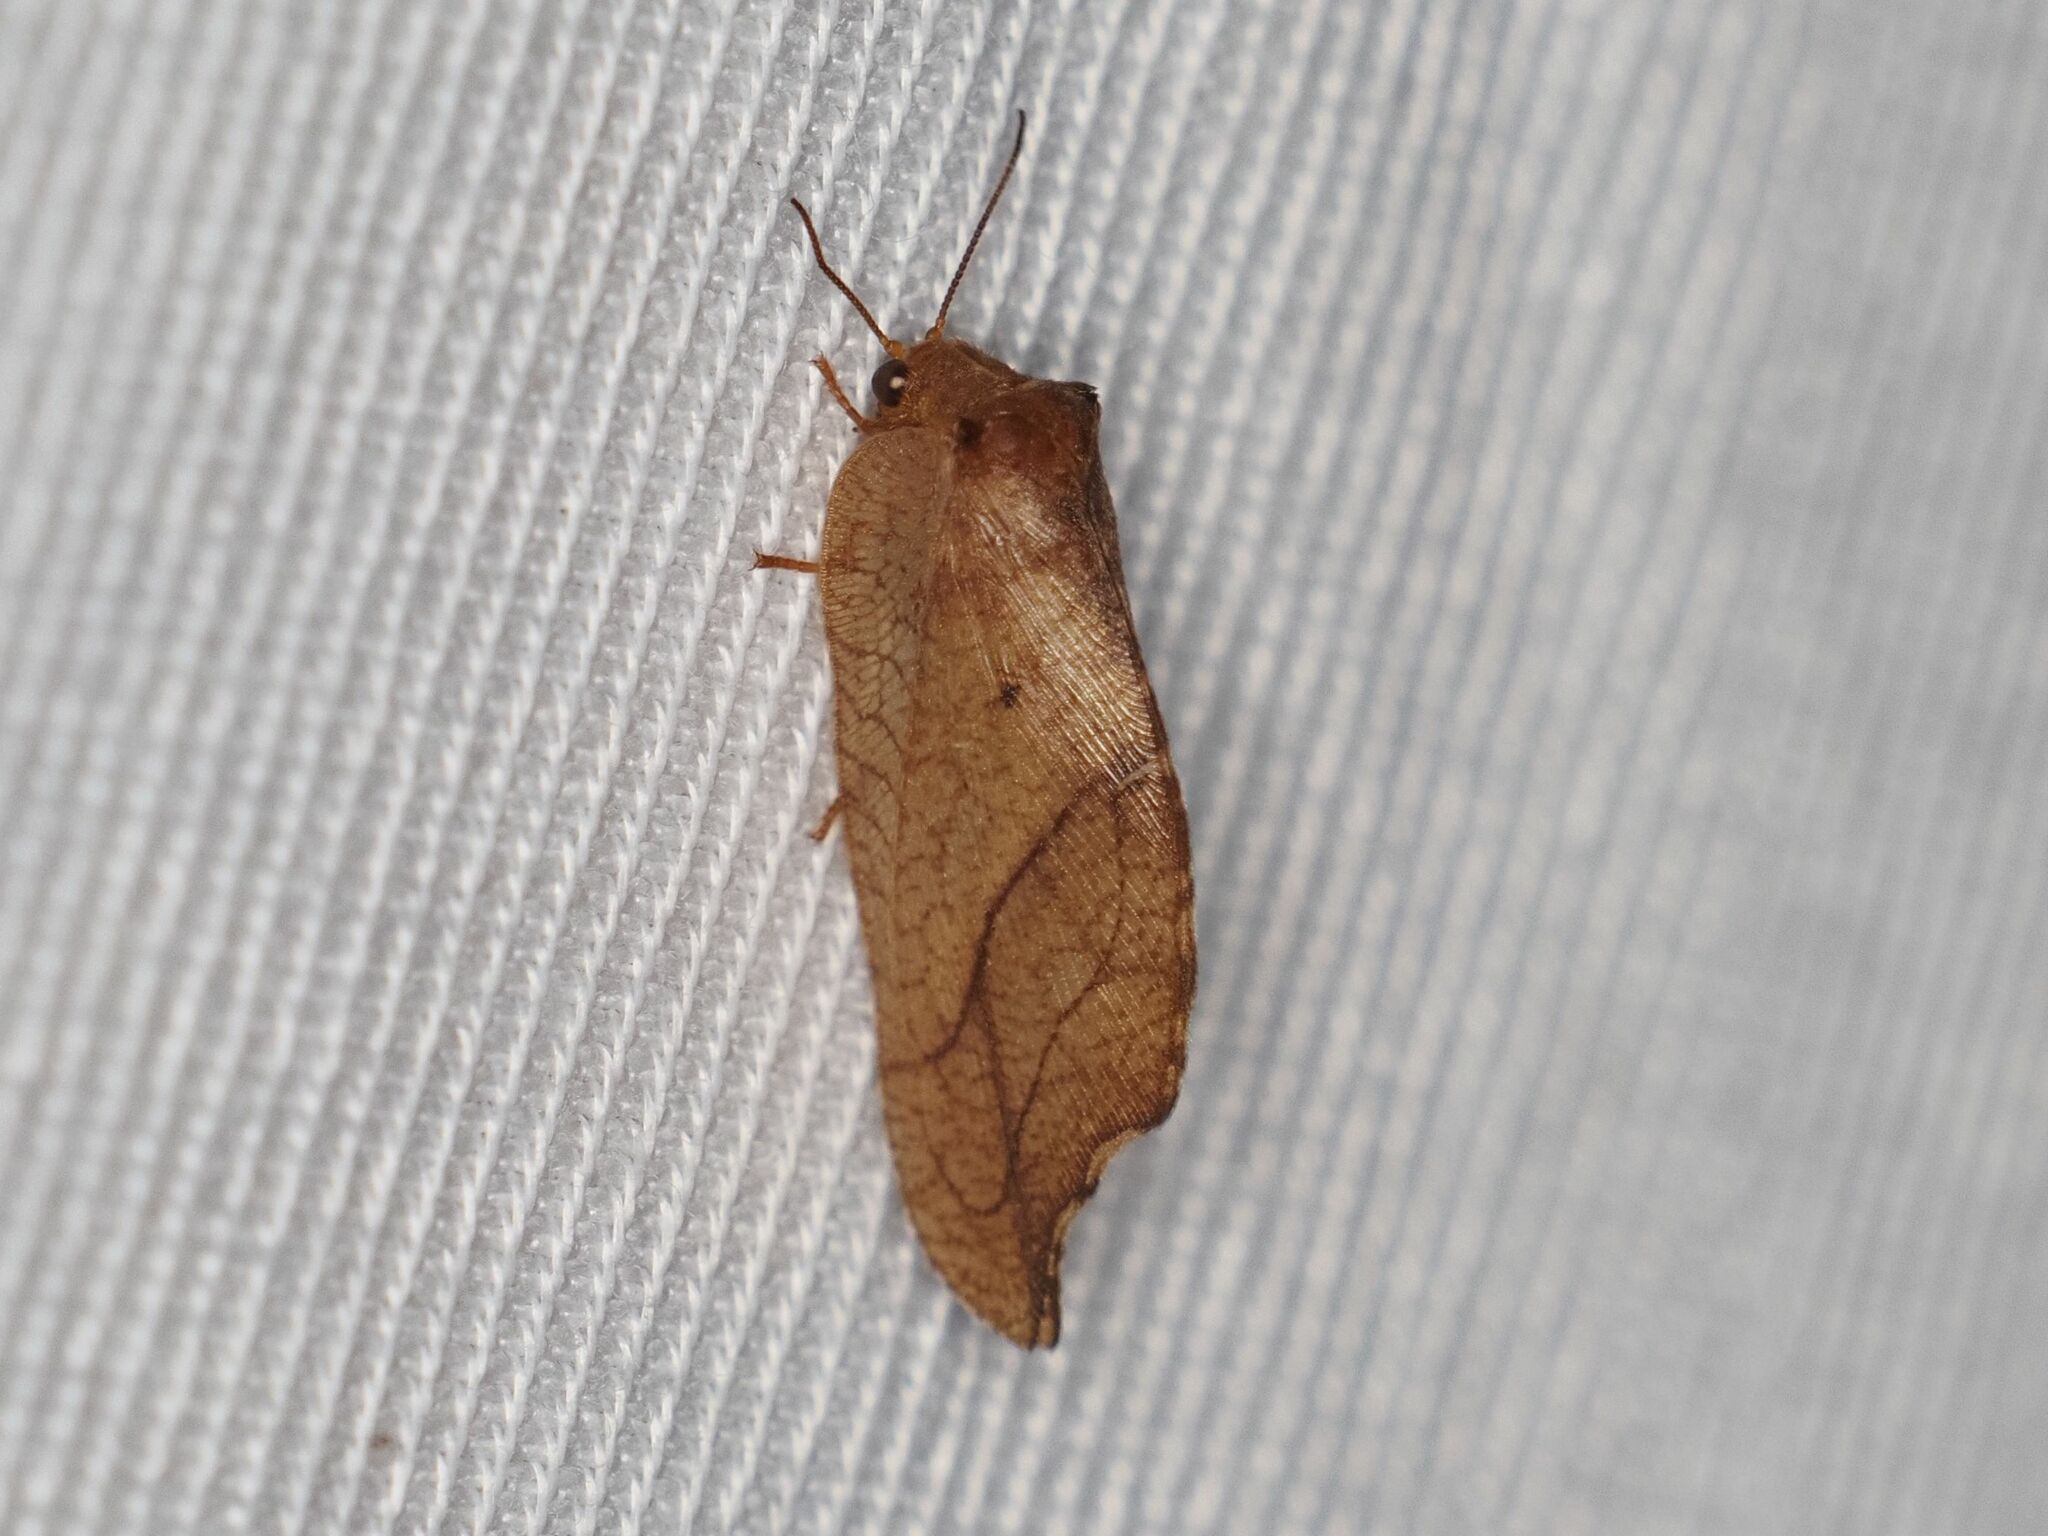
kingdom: Animalia
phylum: Arthropoda
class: Insecta
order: Neuroptera
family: Hemerobiidae
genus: Drepanepteryx
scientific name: Drepanepteryx phalaenoides
